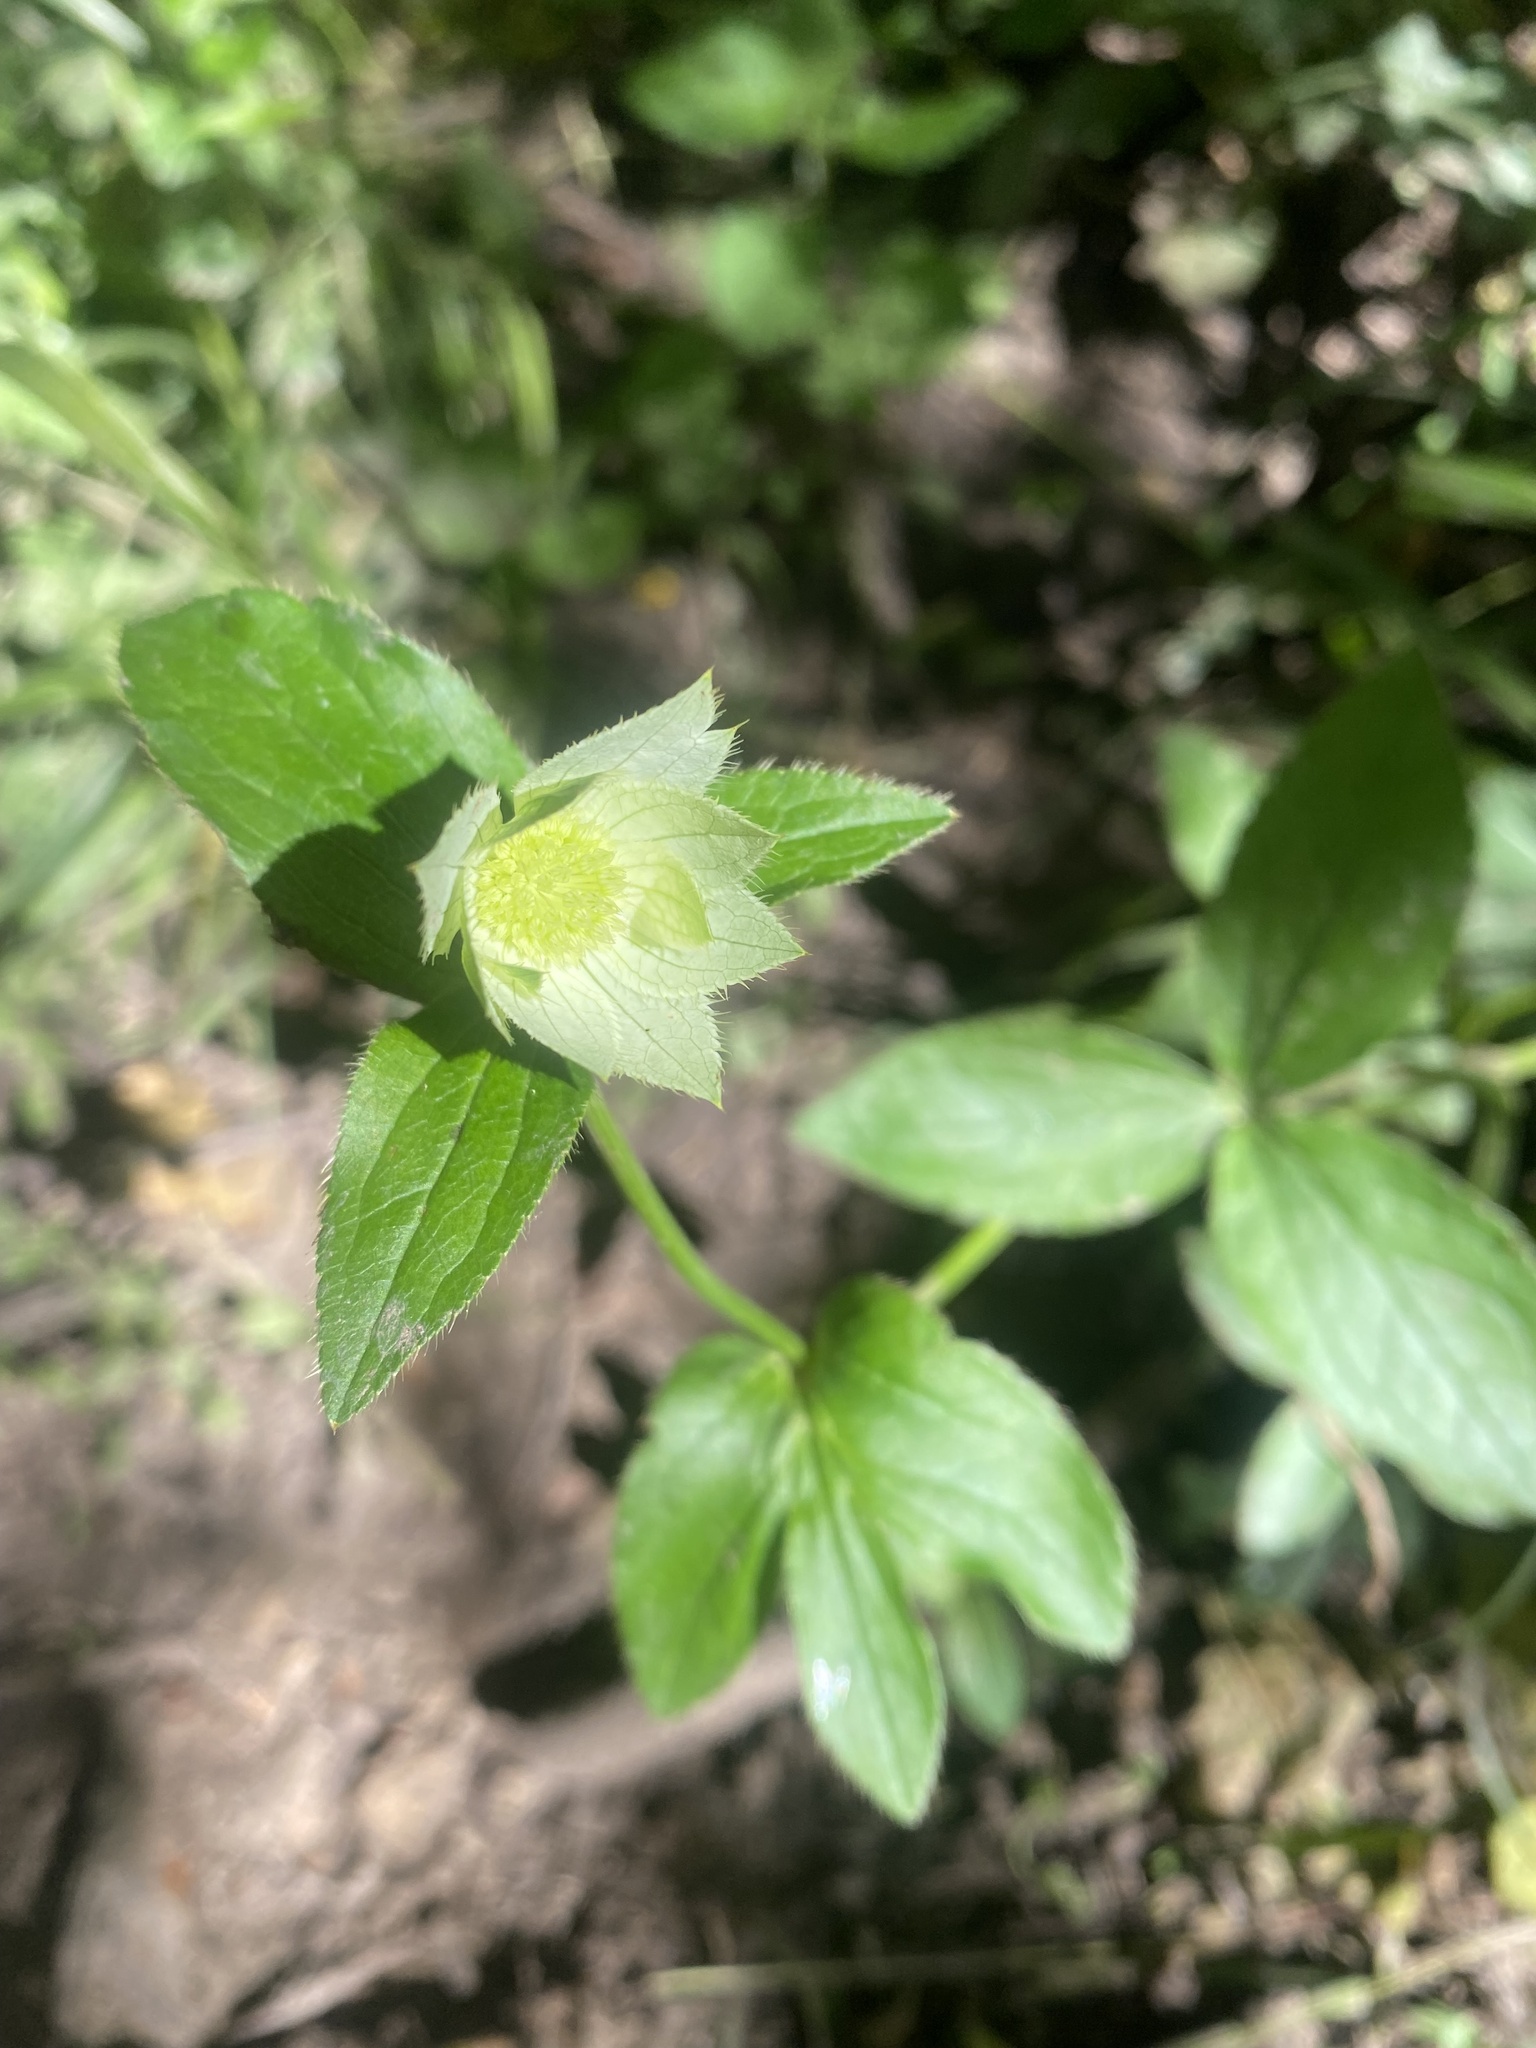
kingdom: Plantae
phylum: Tracheophyta
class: Magnoliopsida
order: Apiales
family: Apiaceae
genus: Astrantia
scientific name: Astrantia maxima
